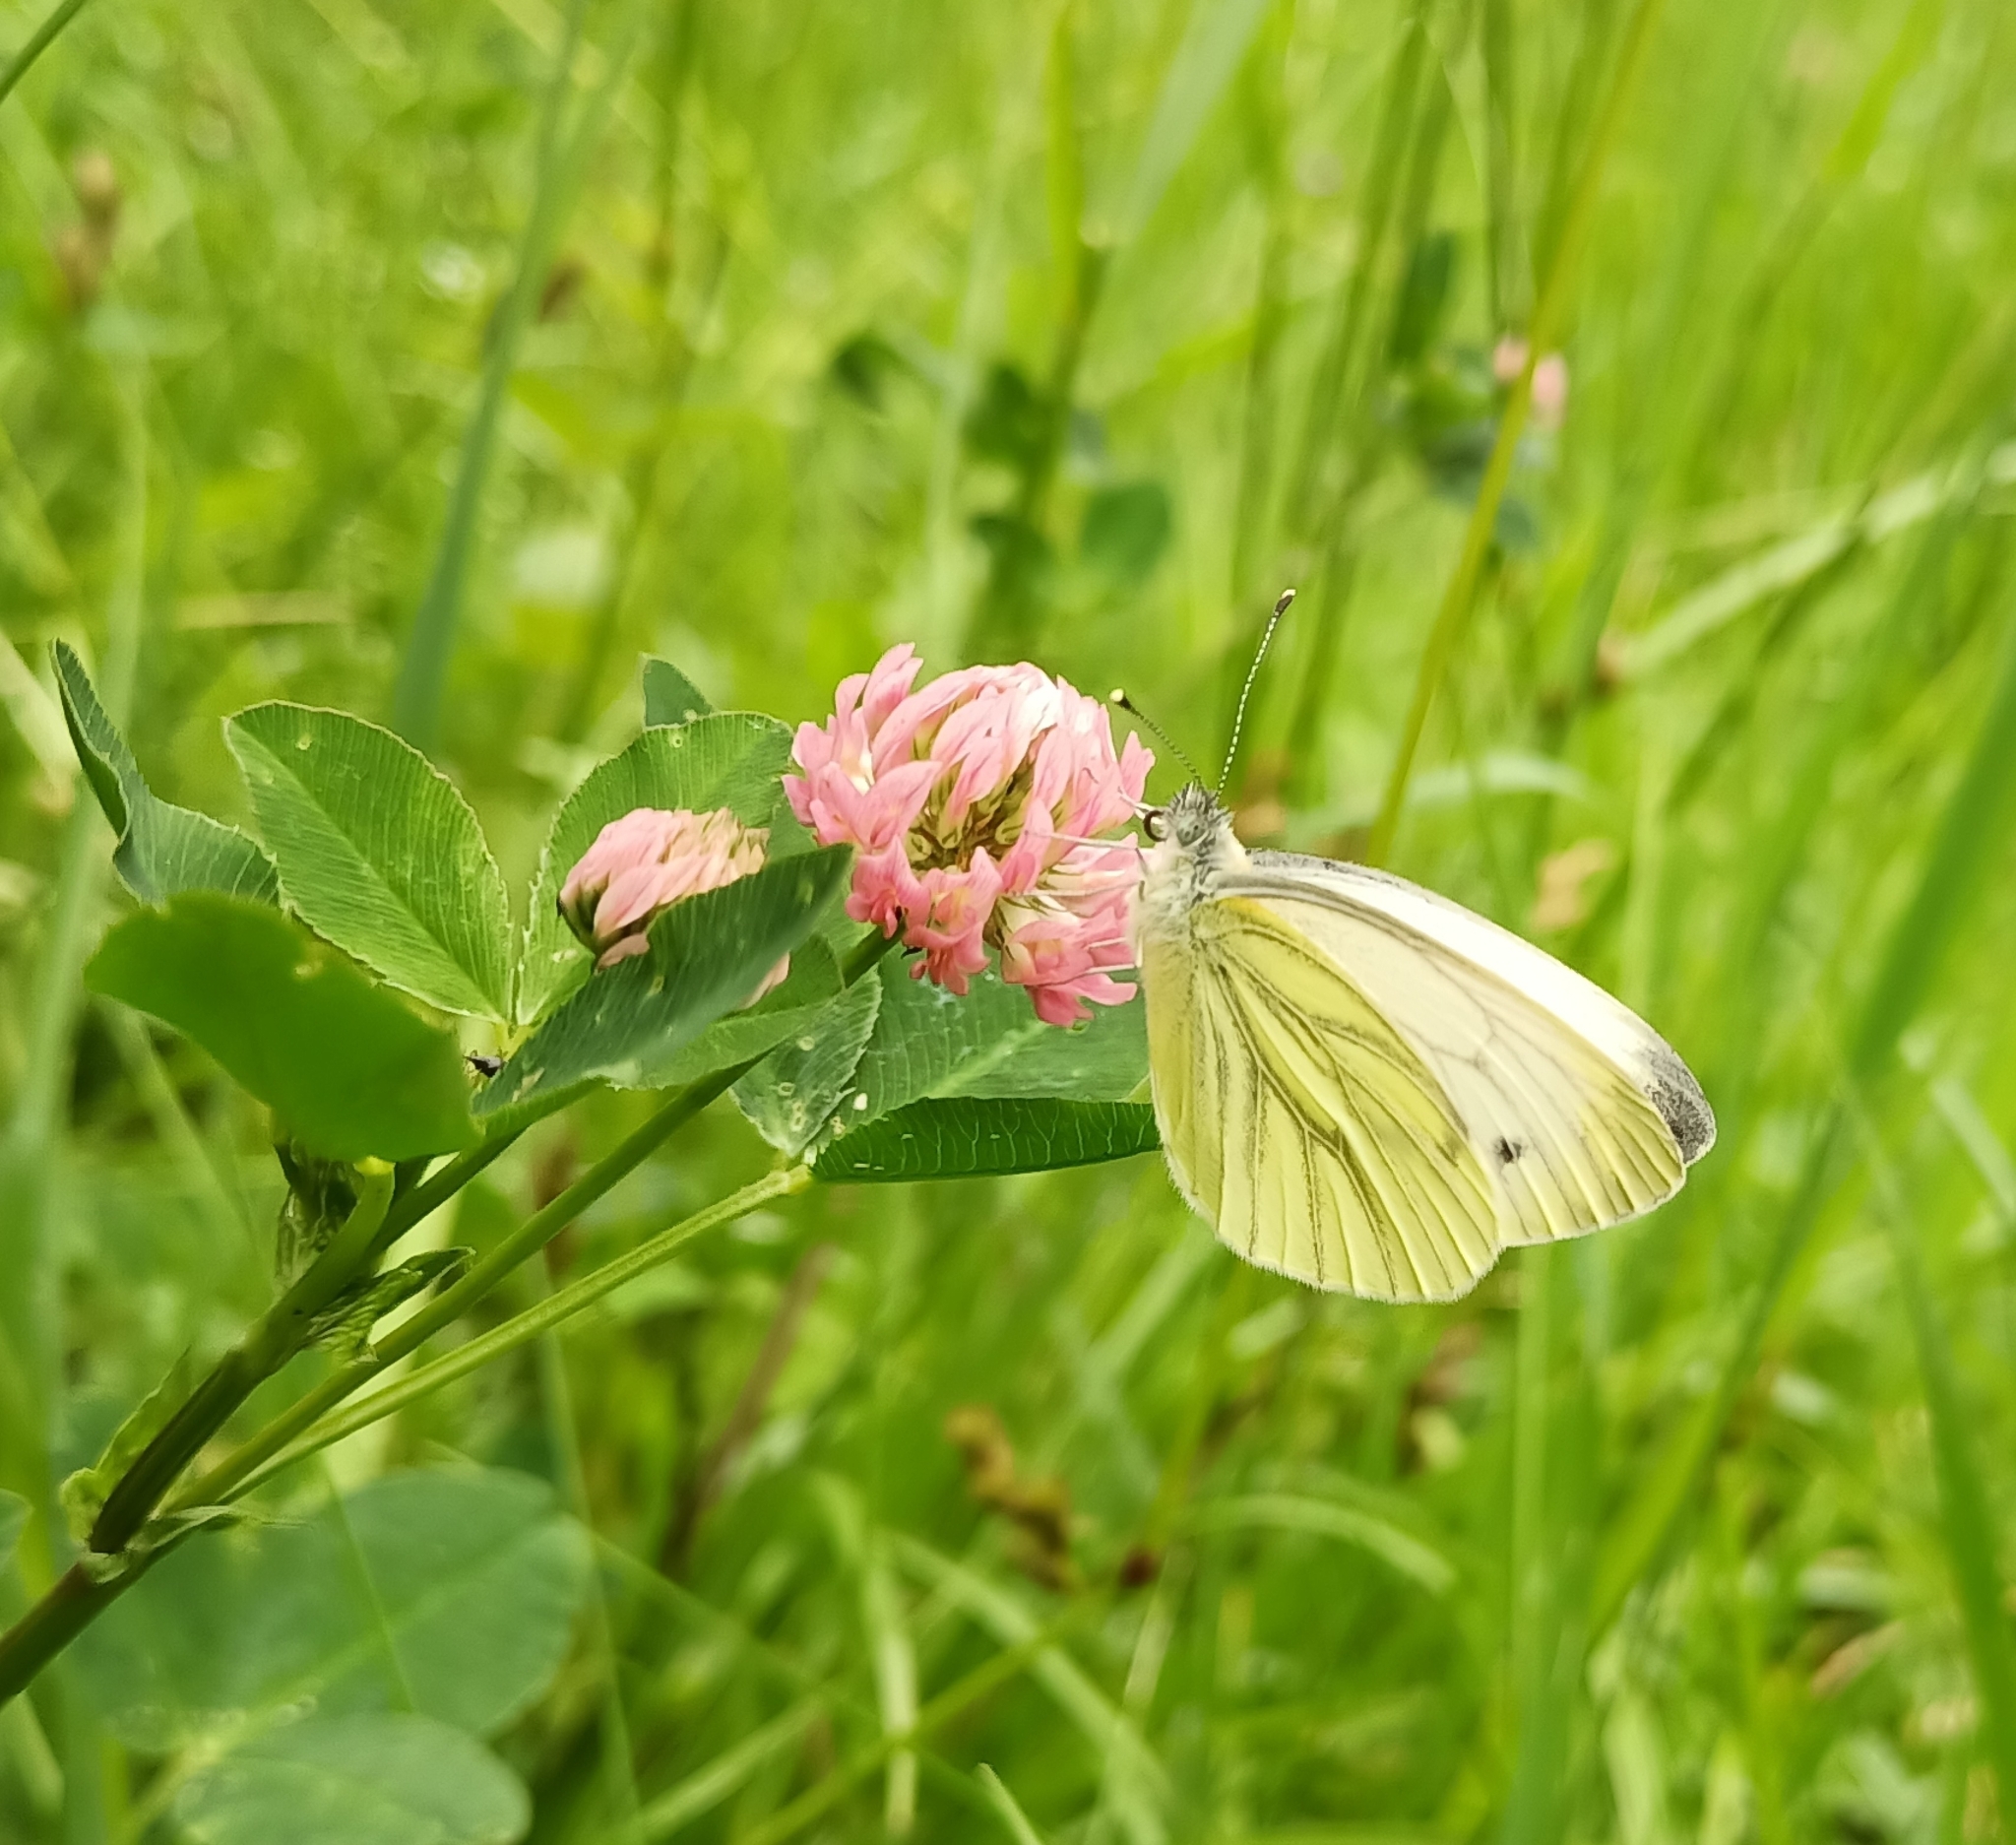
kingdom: Animalia
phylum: Arthropoda
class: Insecta
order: Lepidoptera
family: Pieridae
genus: Pieris
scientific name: Pieris napi
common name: Green-veined white
